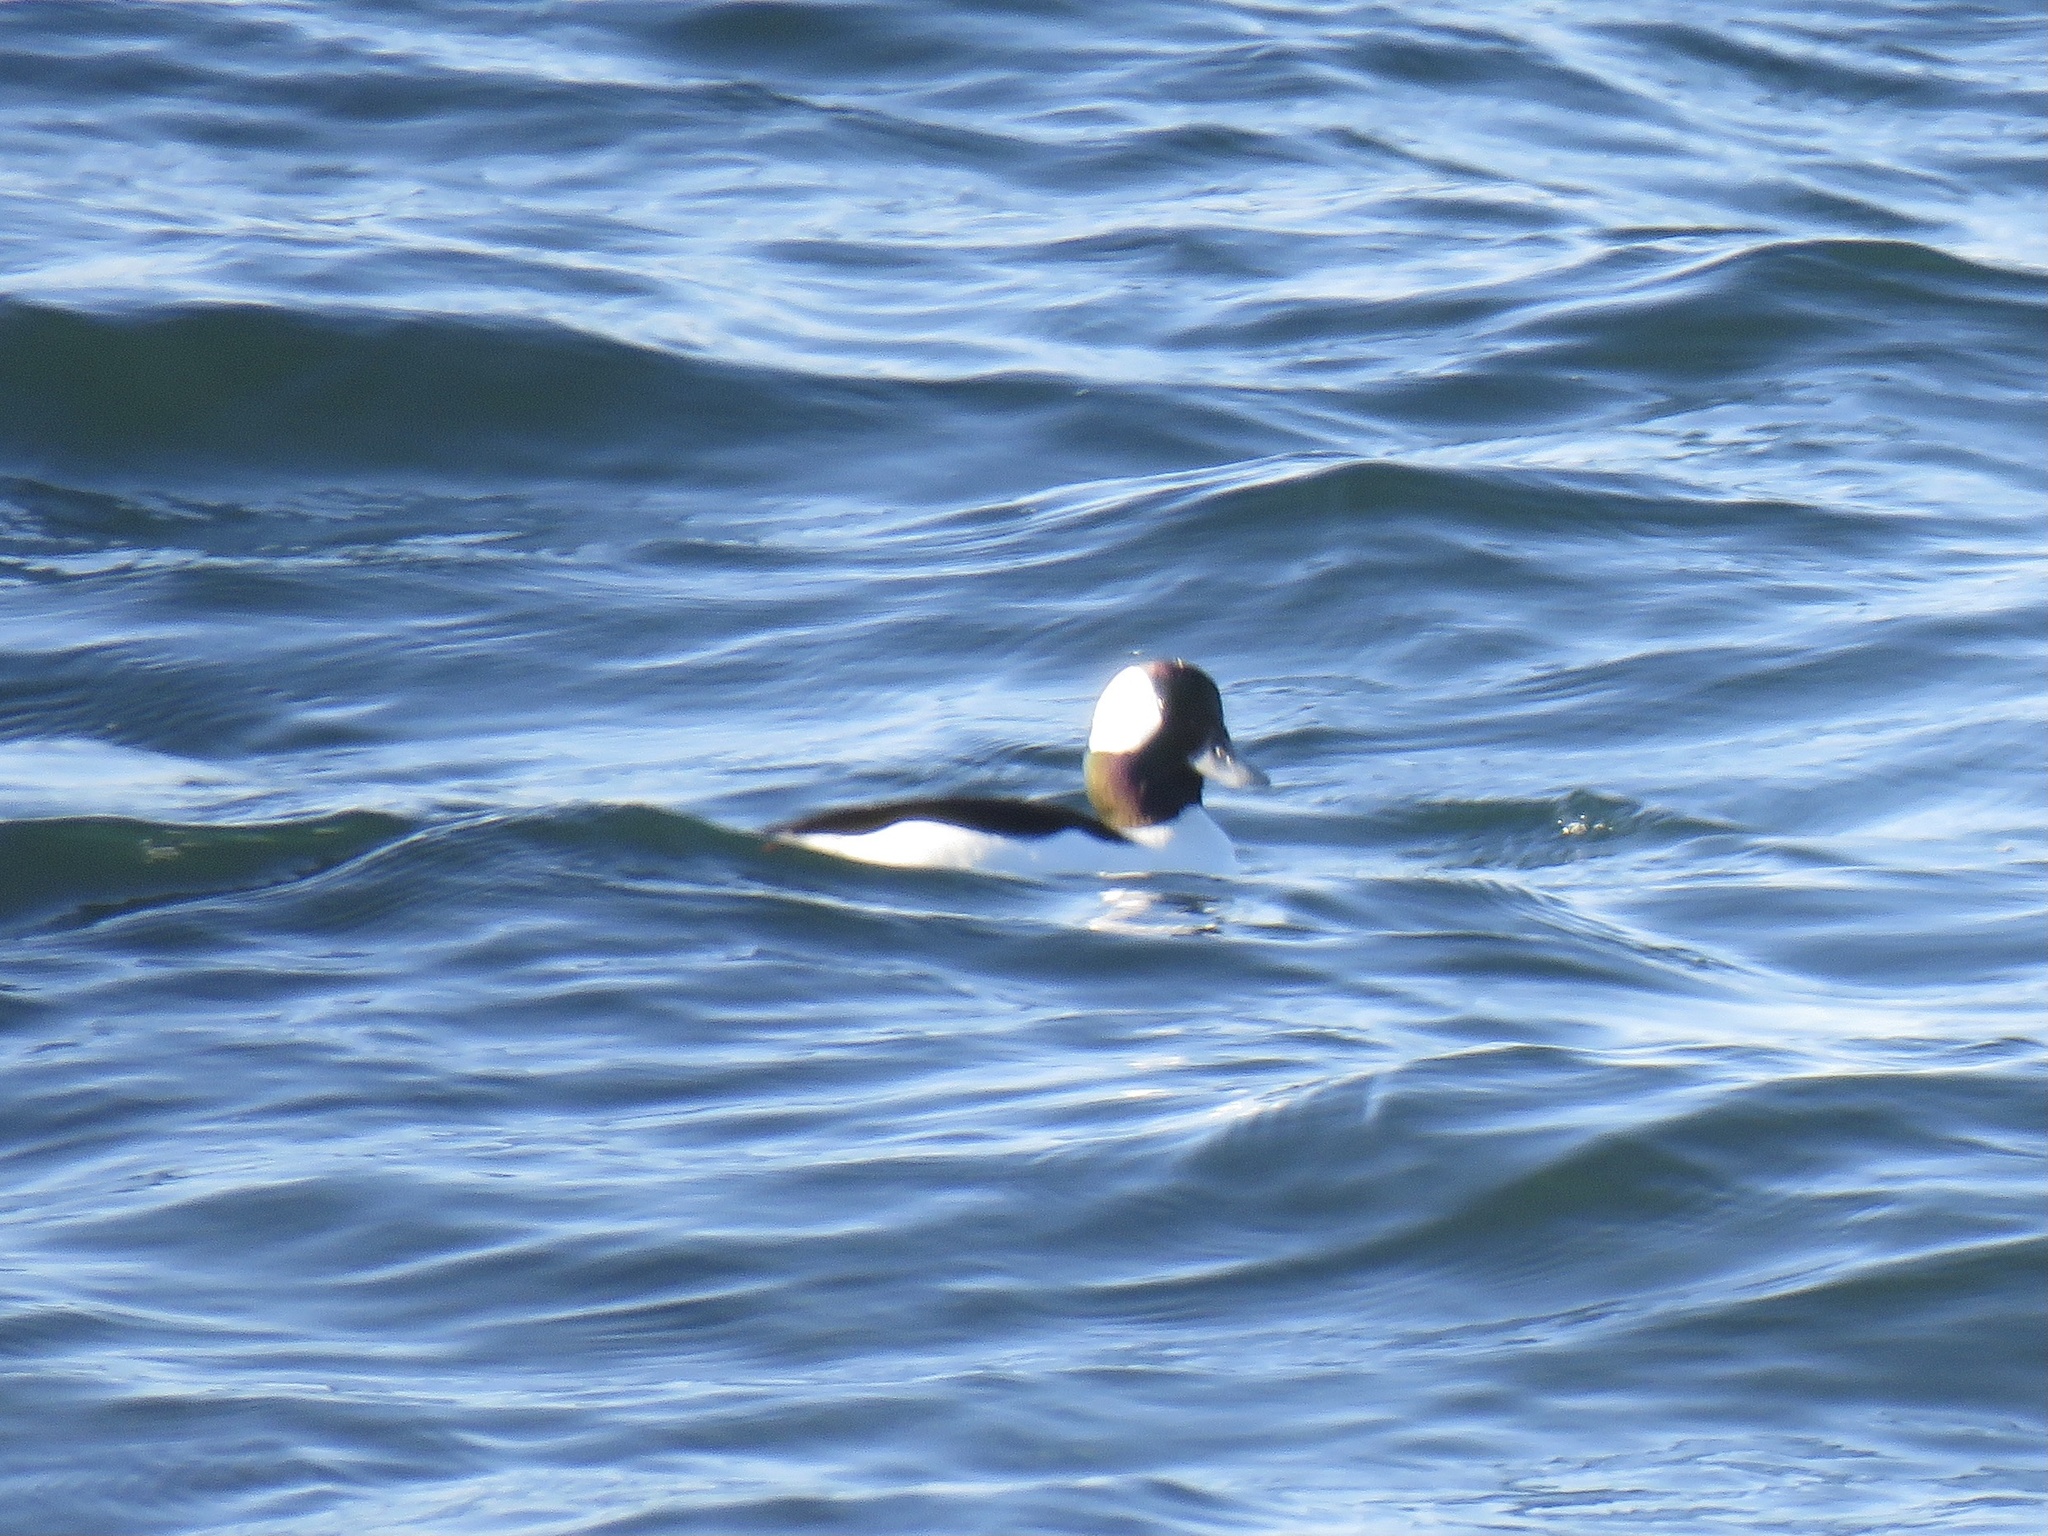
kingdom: Animalia
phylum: Chordata
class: Aves
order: Anseriformes
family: Anatidae
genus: Bucephala
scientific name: Bucephala albeola
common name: Bufflehead
